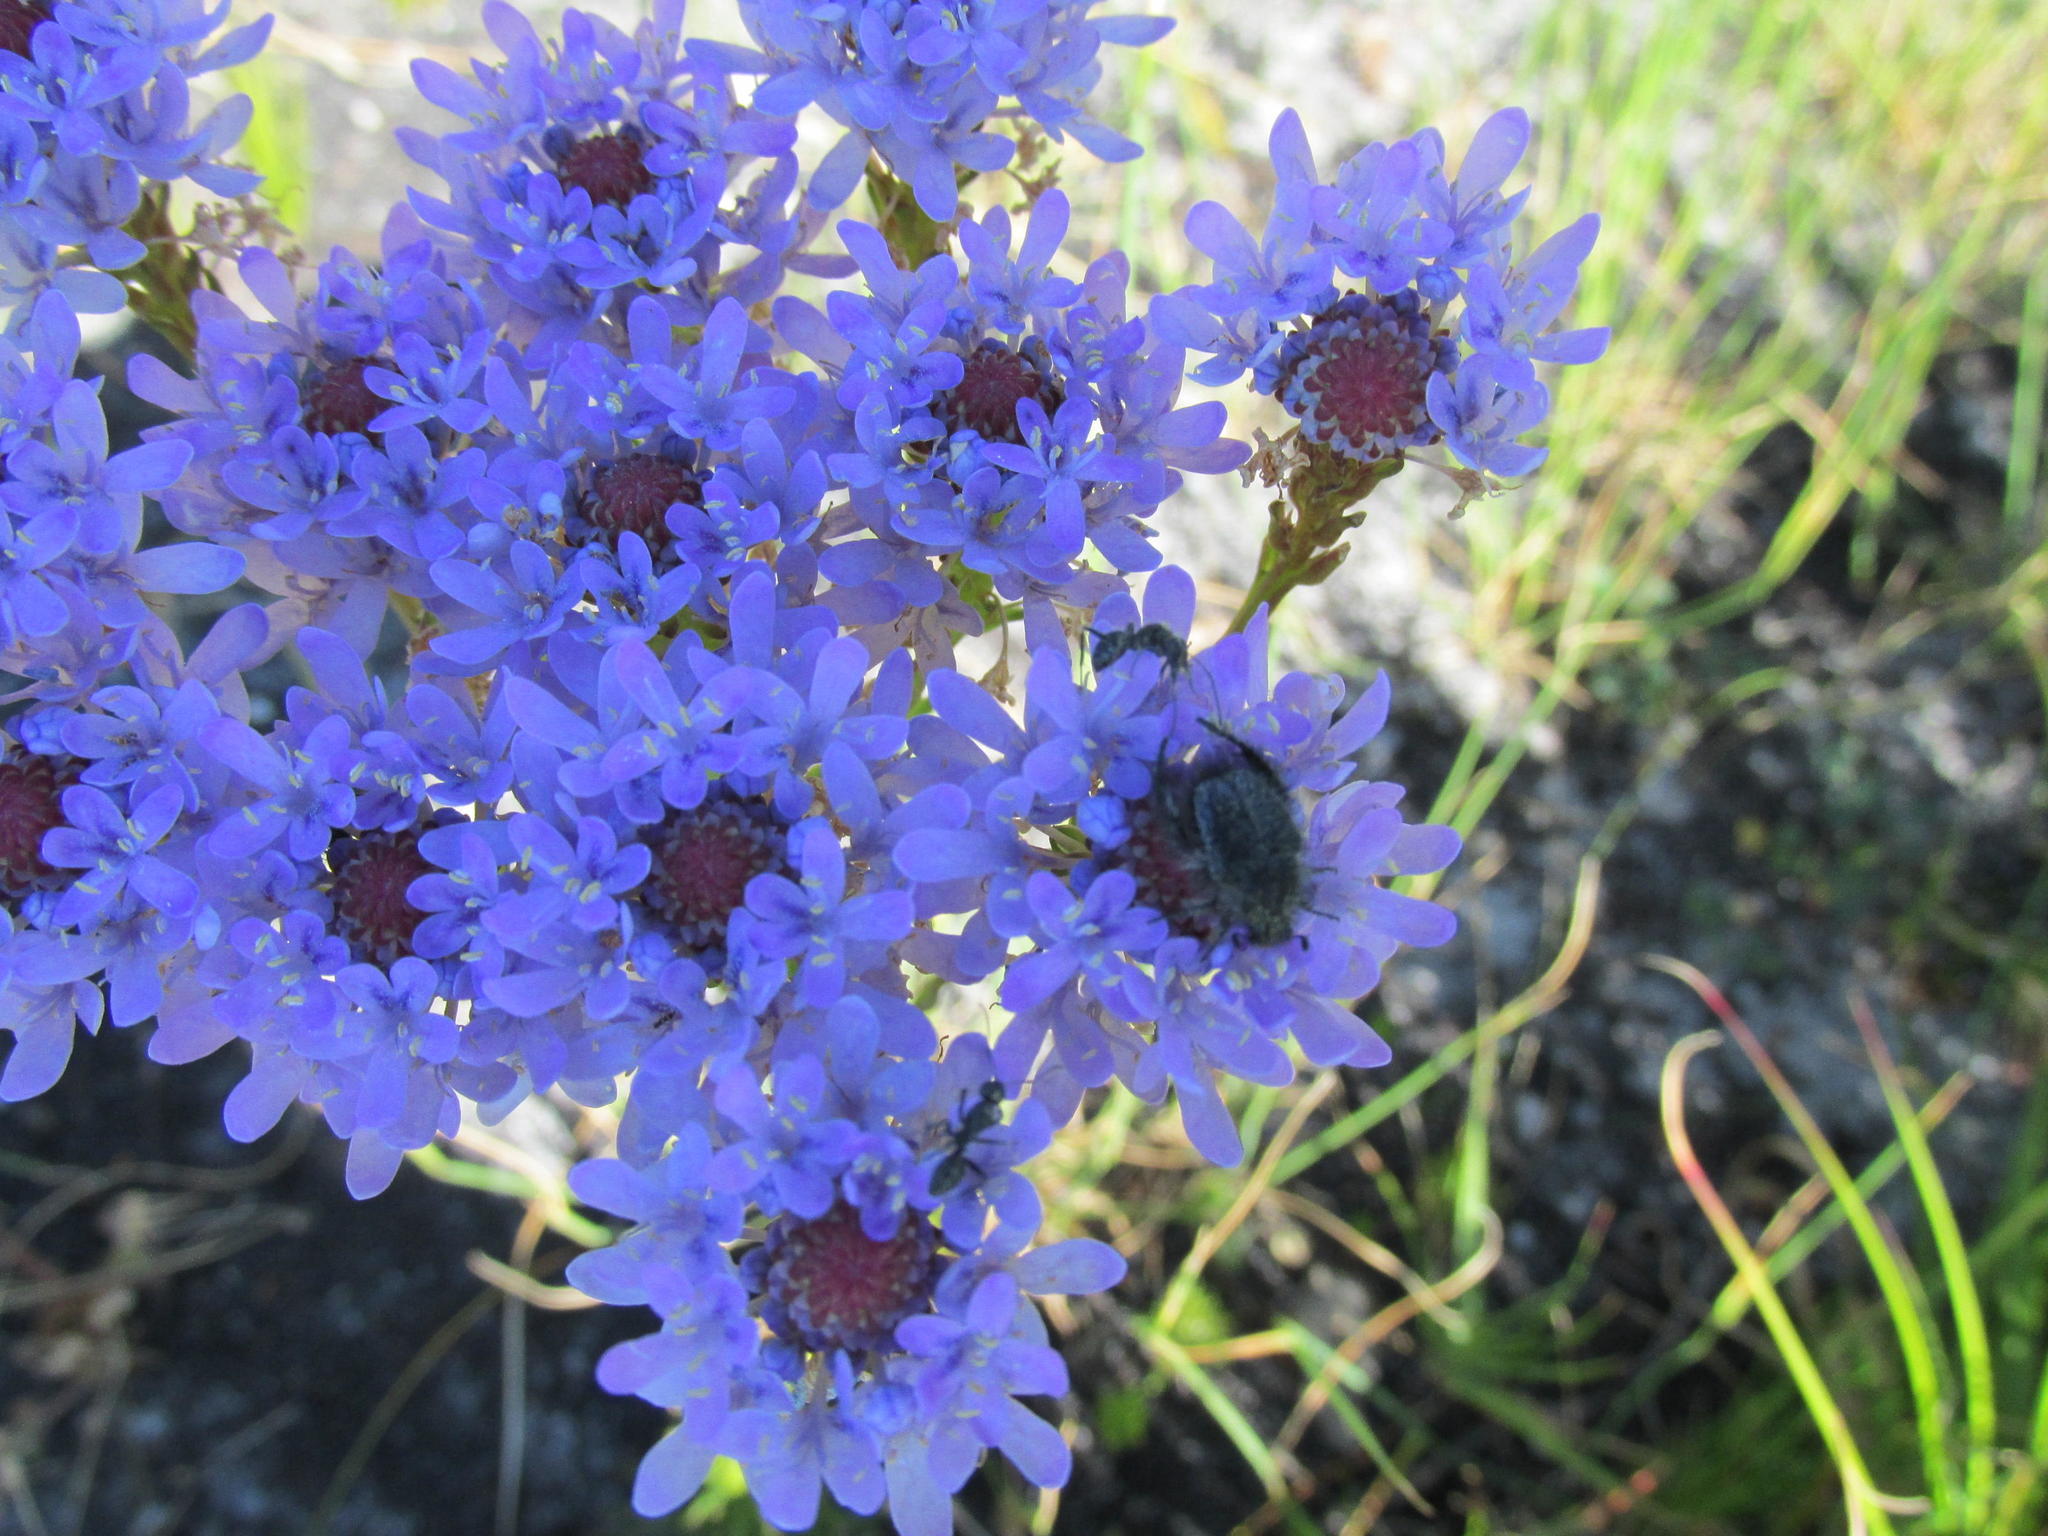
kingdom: Animalia
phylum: Arthropoda
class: Insecta
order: Hymenoptera
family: Formicidae
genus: Camponotus
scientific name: Camponotus niveosetosus
